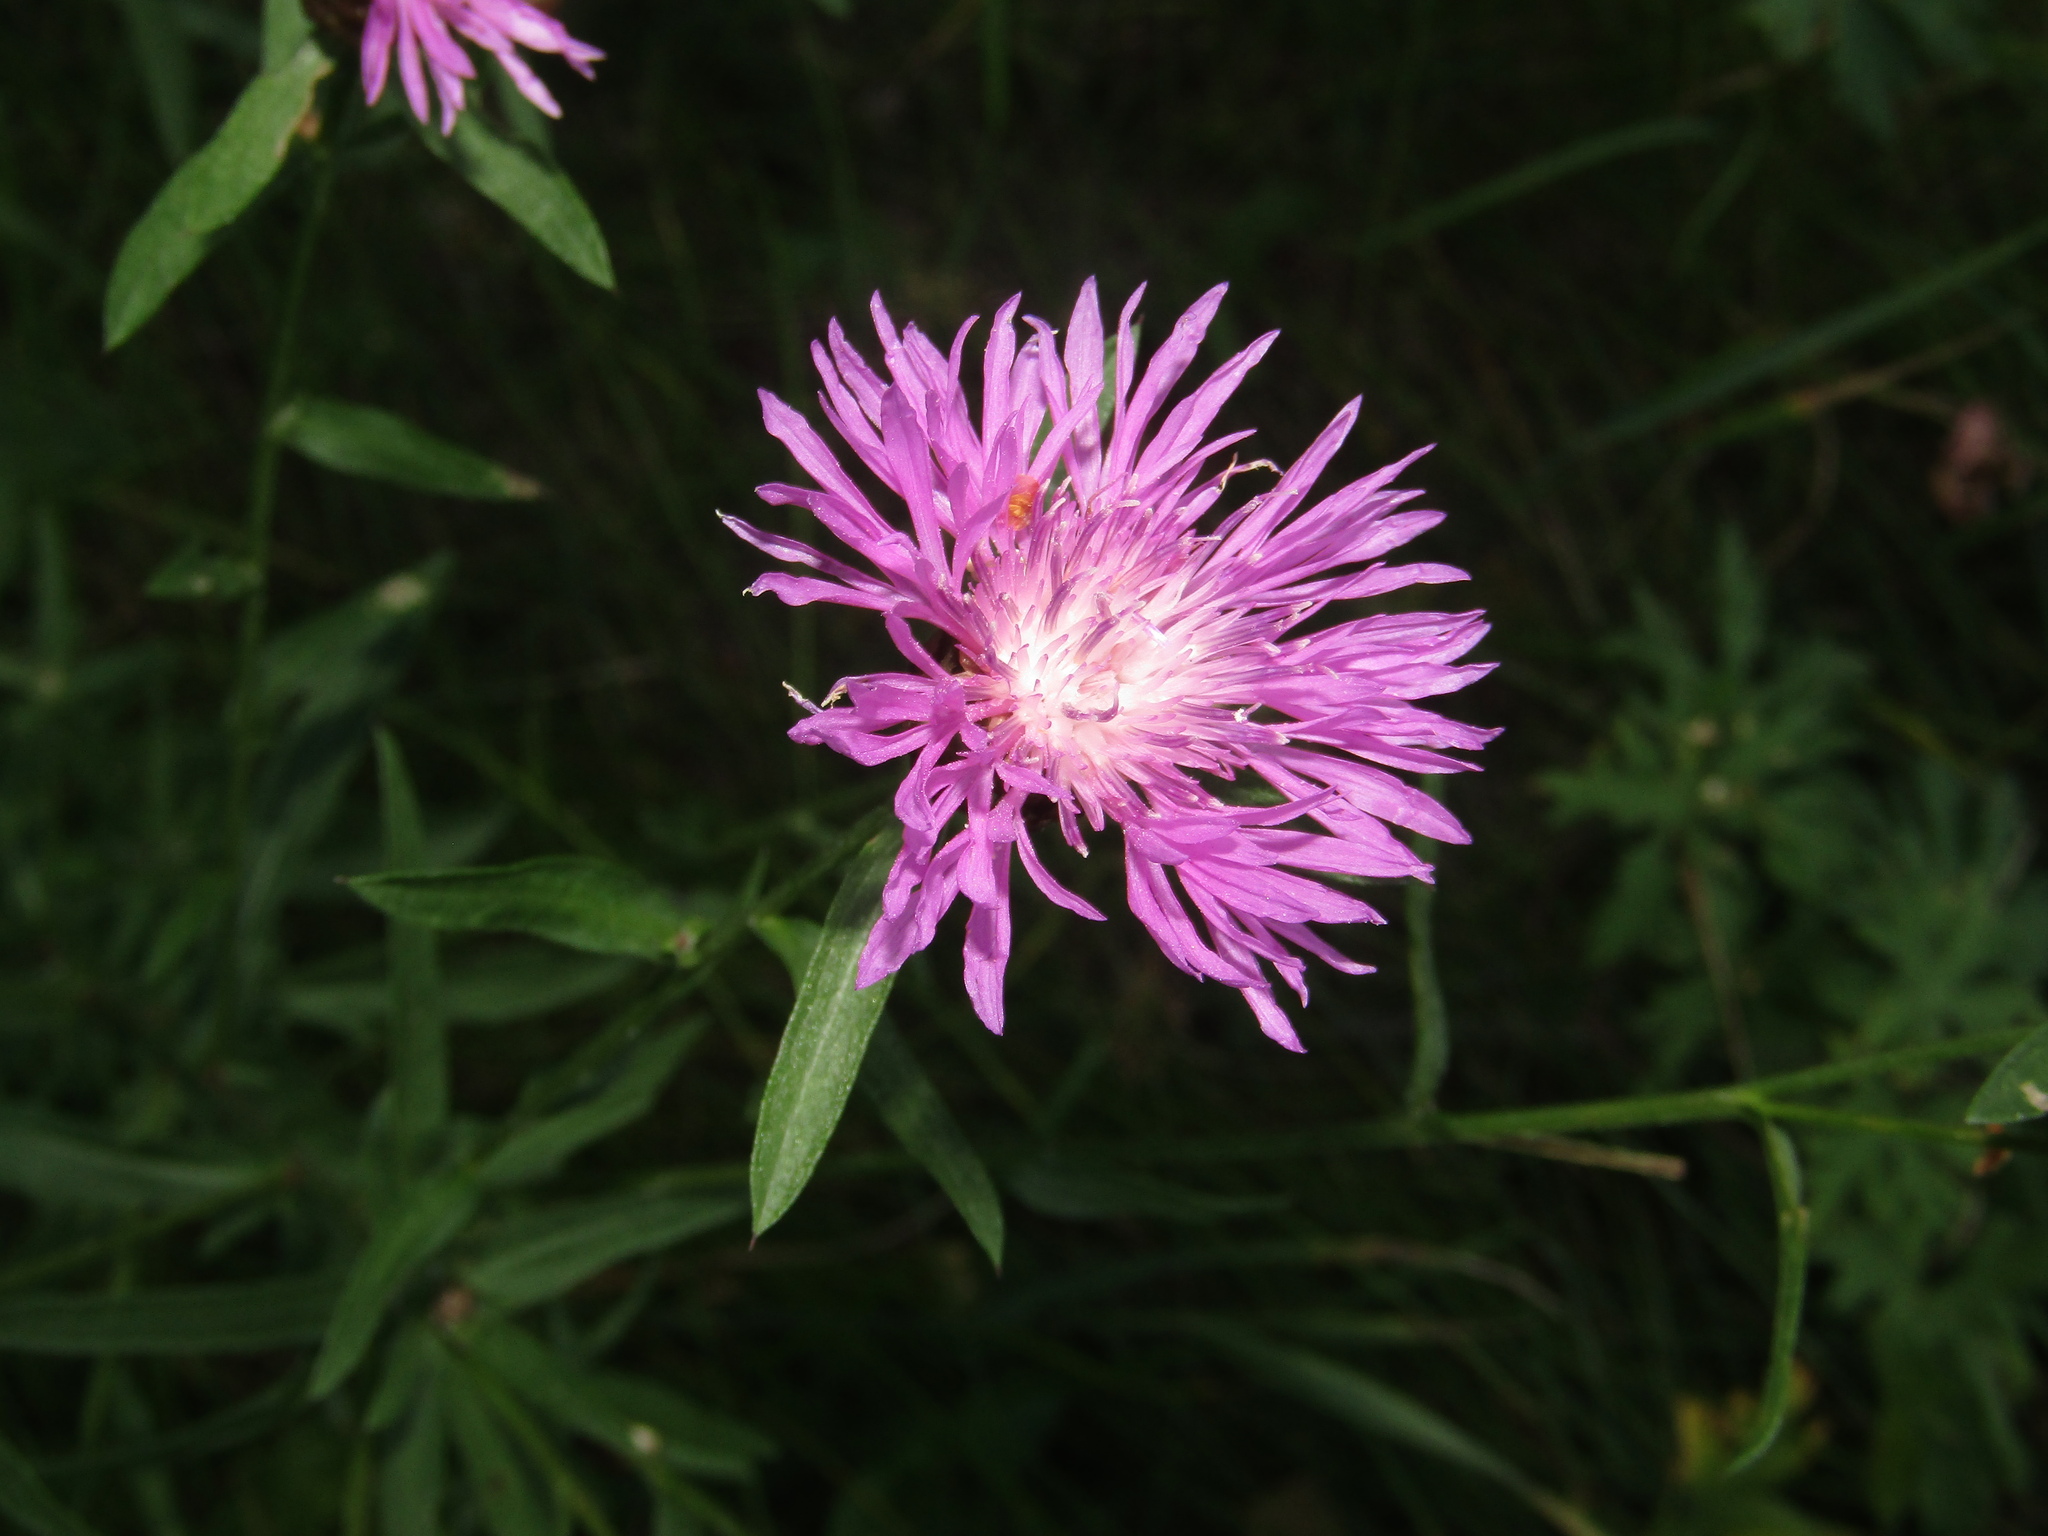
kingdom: Plantae
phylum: Tracheophyta
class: Magnoliopsida
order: Asterales
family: Asteraceae
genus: Centaurea
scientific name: Centaurea jacea
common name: Brown knapweed
